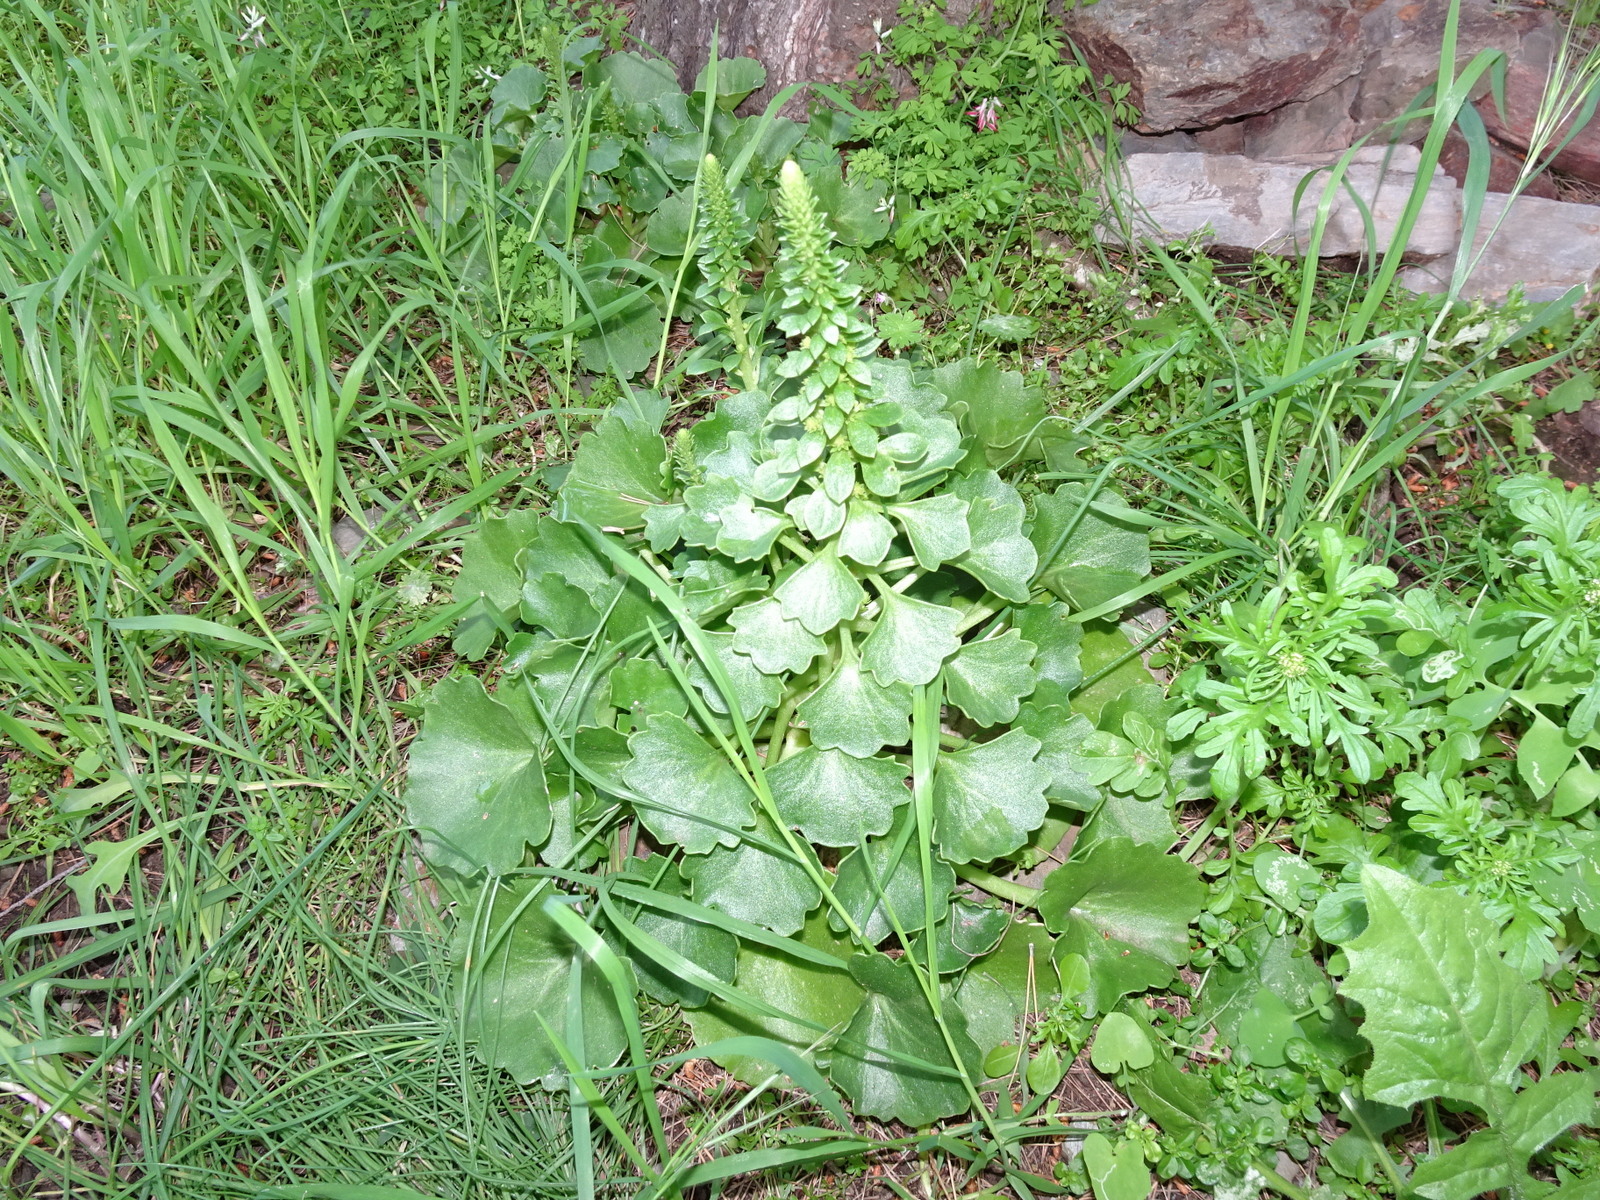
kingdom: Plantae
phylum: Tracheophyta
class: Magnoliopsida
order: Saxifragales
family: Crassulaceae
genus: Umbilicus
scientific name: Umbilicus rupestris
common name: Navelwort
